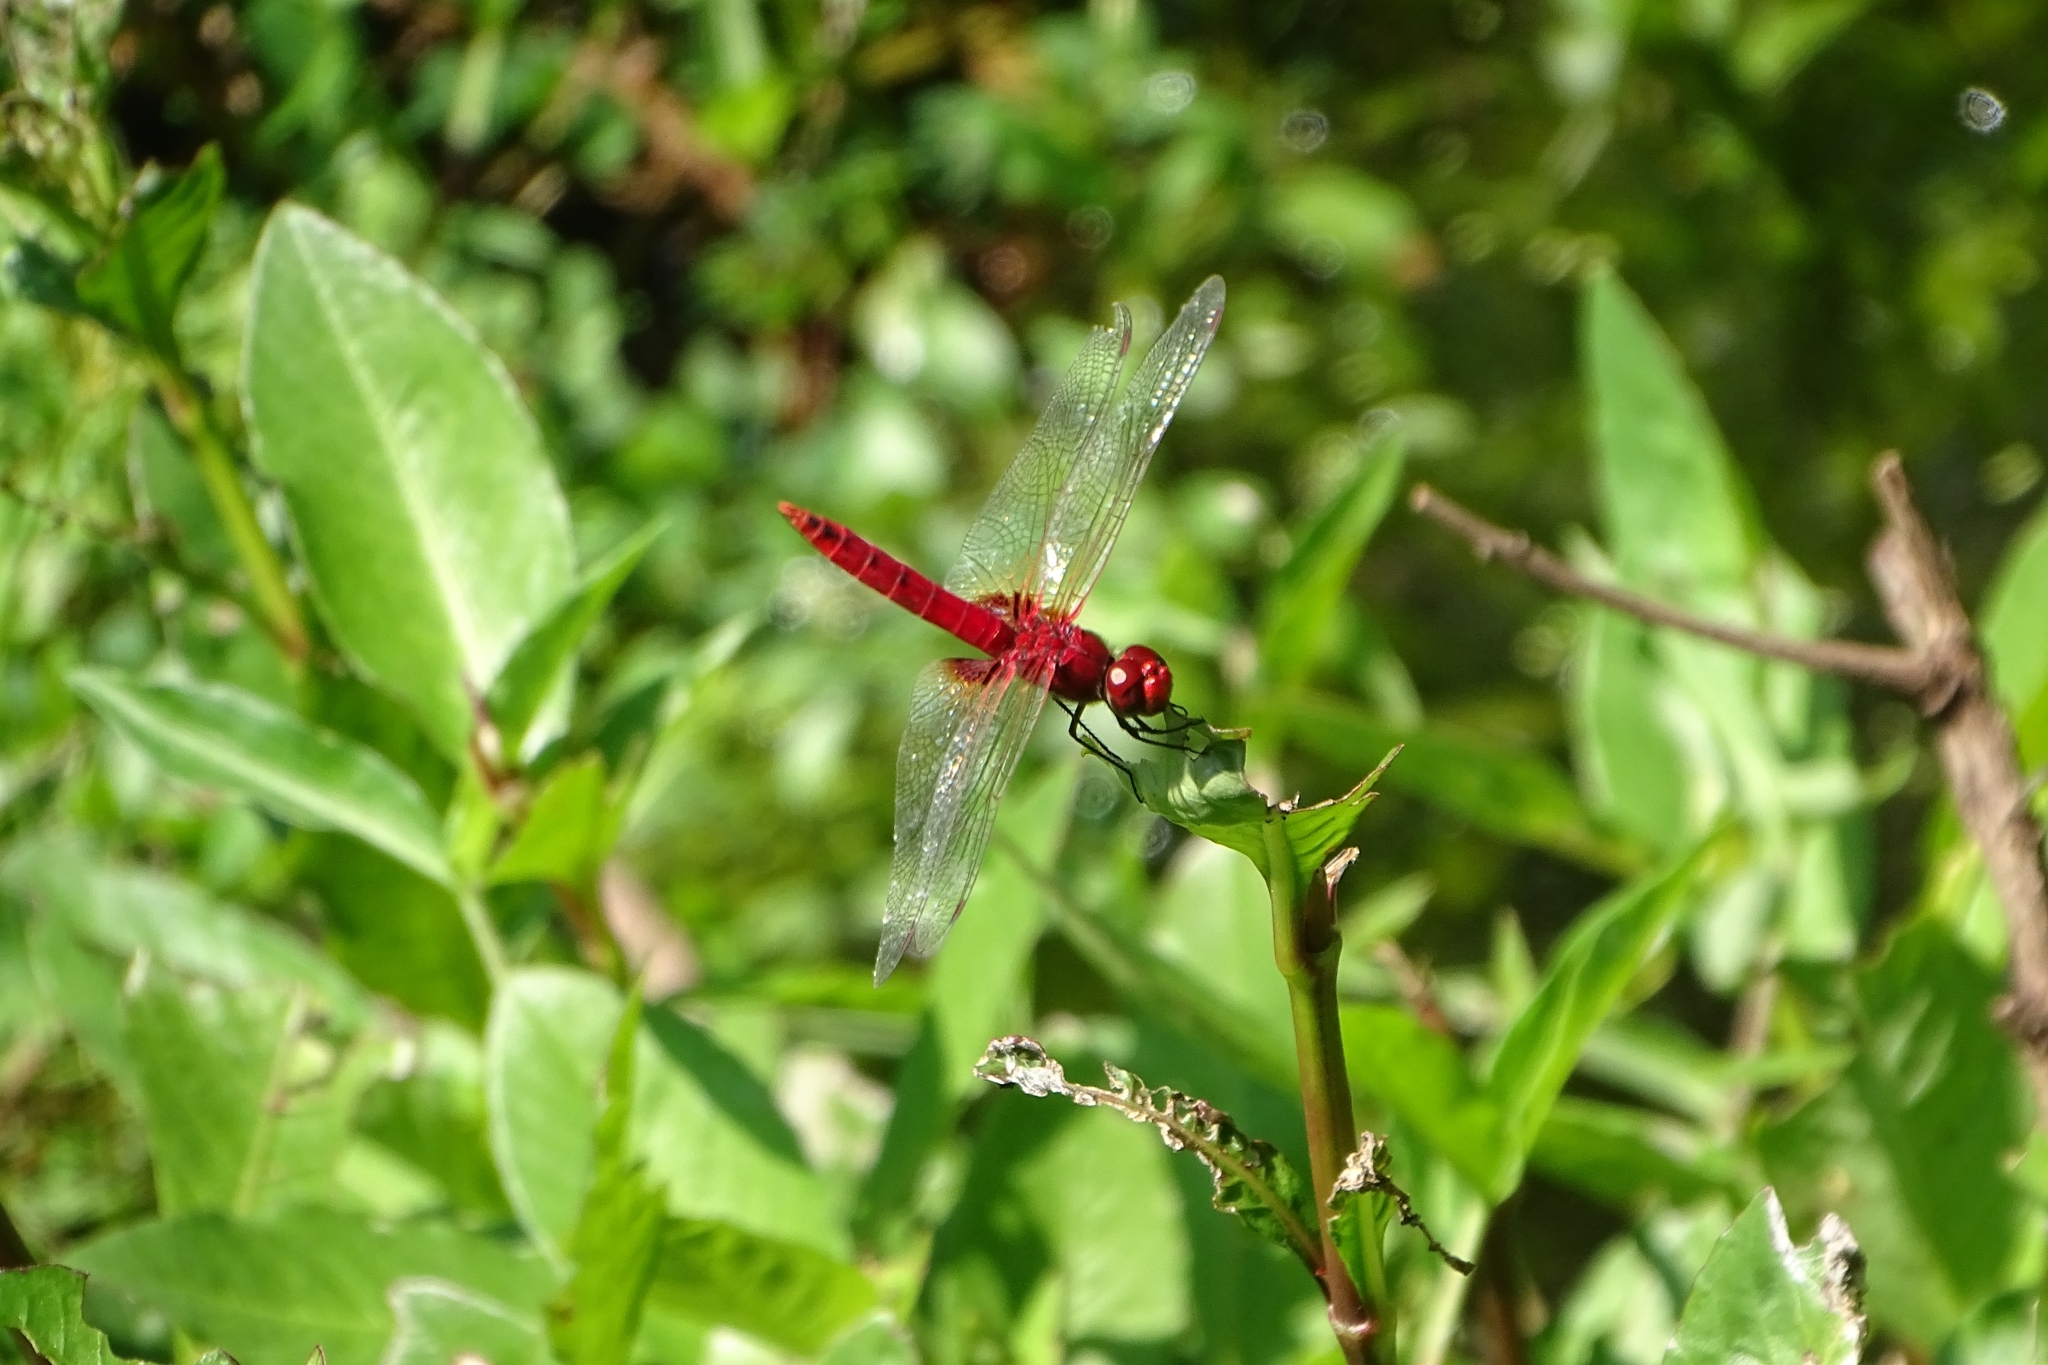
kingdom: Animalia
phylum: Arthropoda
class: Insecta
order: Odonata
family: Libellulidae
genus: Urothemis
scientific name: Urothemis signata
